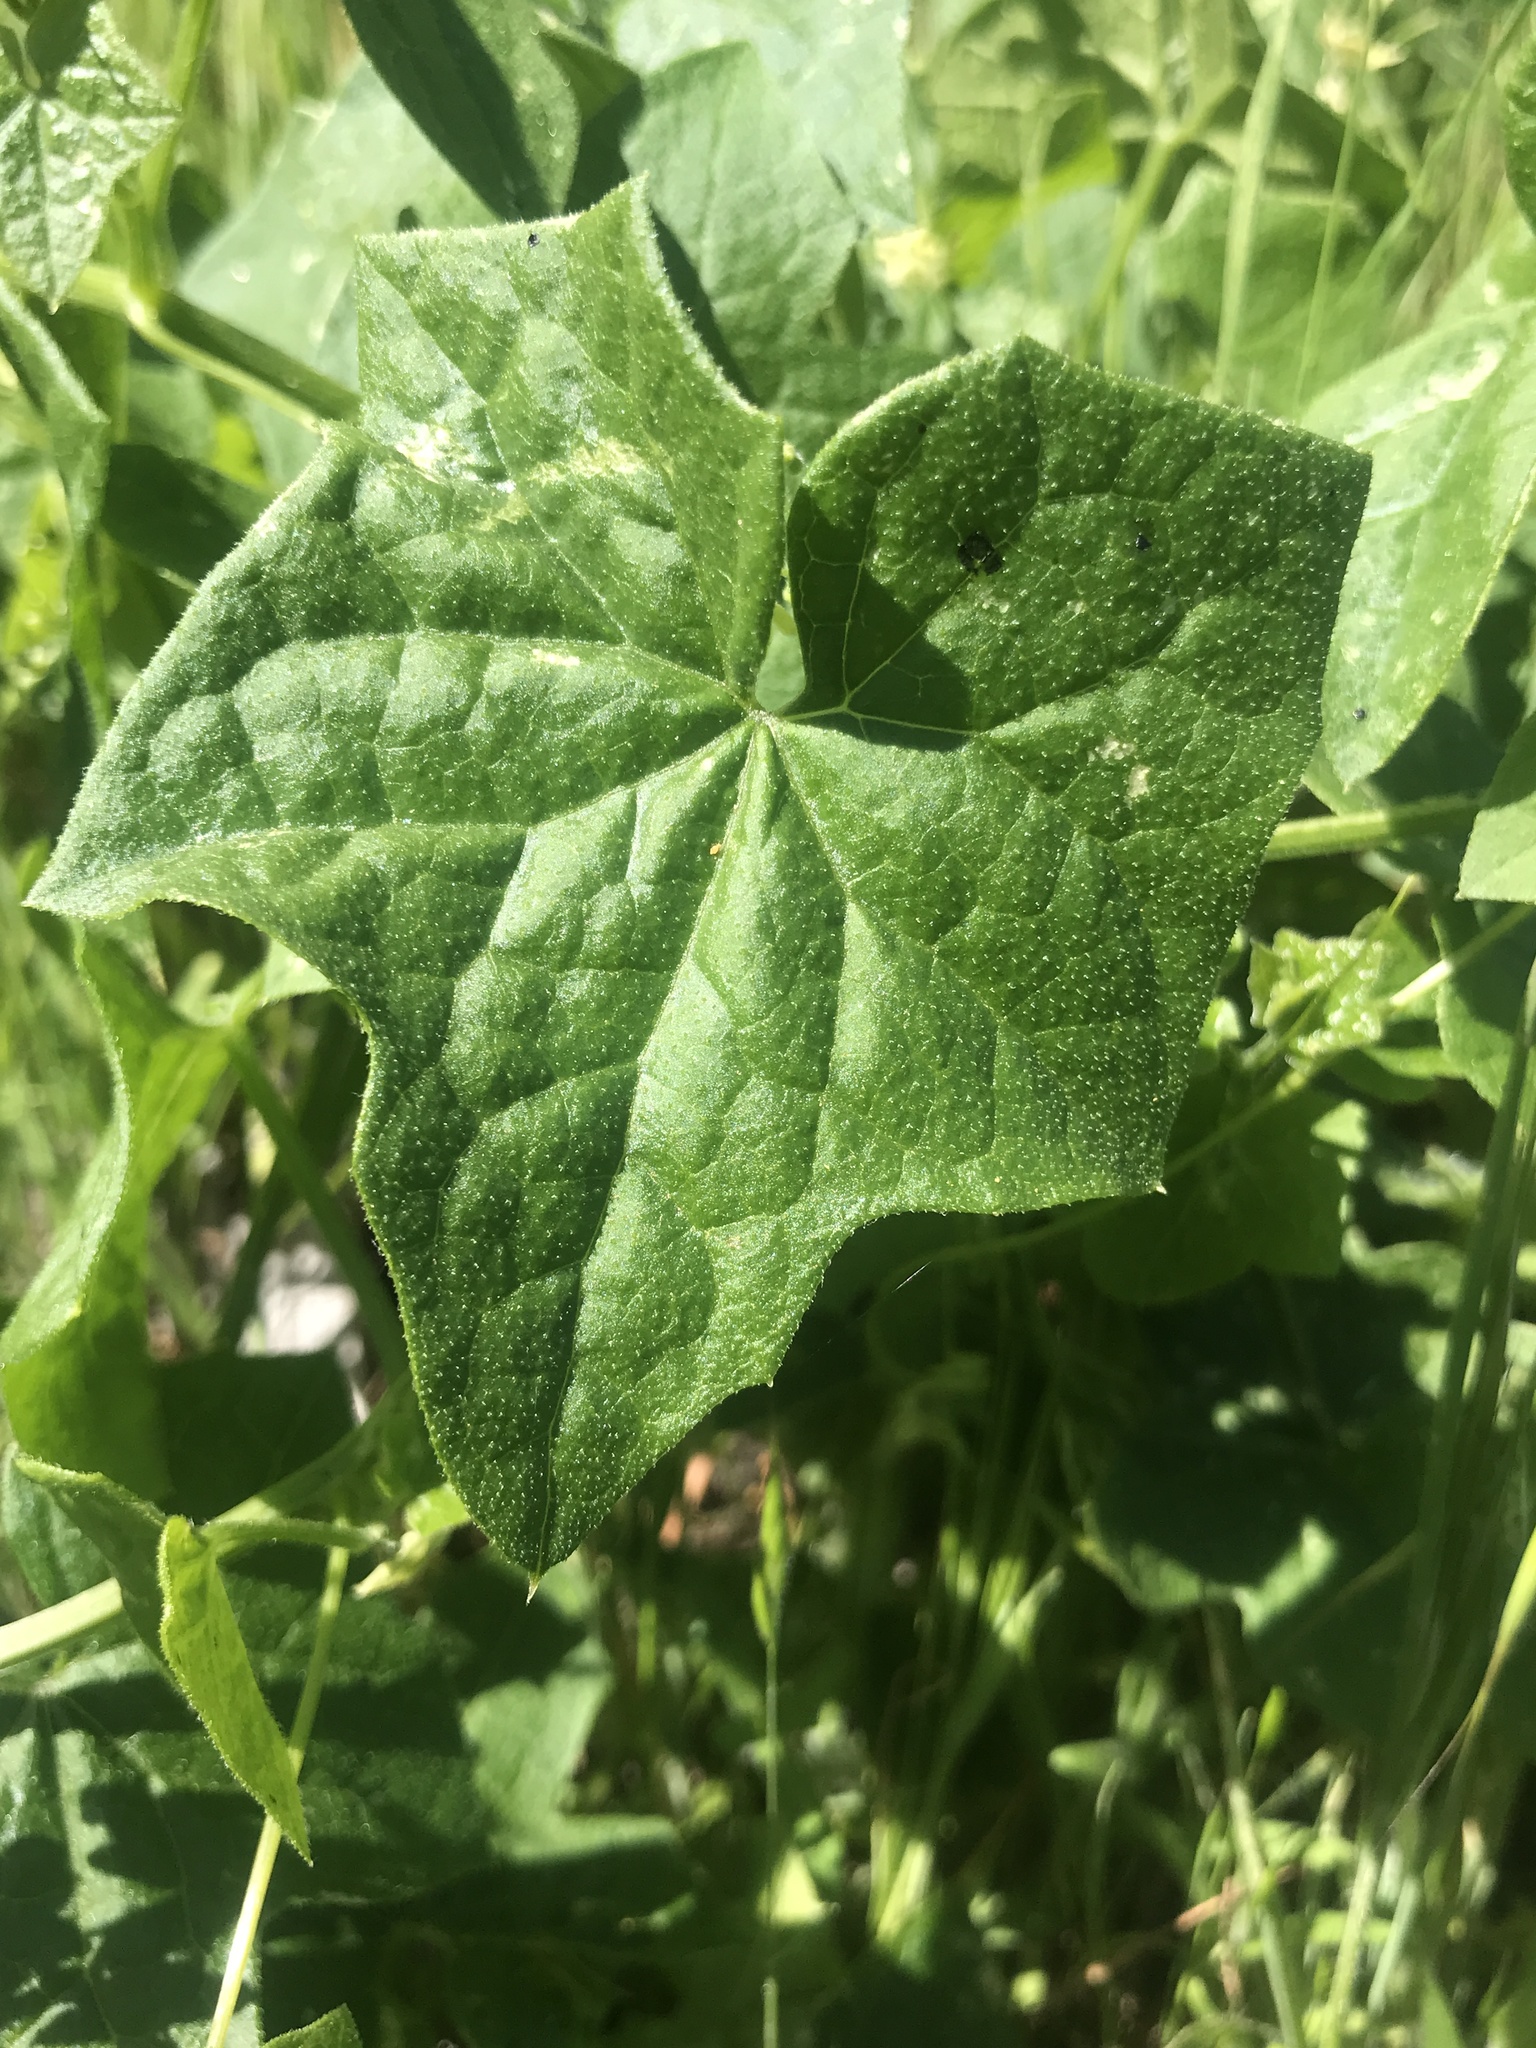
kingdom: Plantae
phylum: Tracheophyta
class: Magnoliopsida
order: Cucurbitales
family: Cucurbitaceae
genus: Marah
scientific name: Marah fabacea
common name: California manroot
